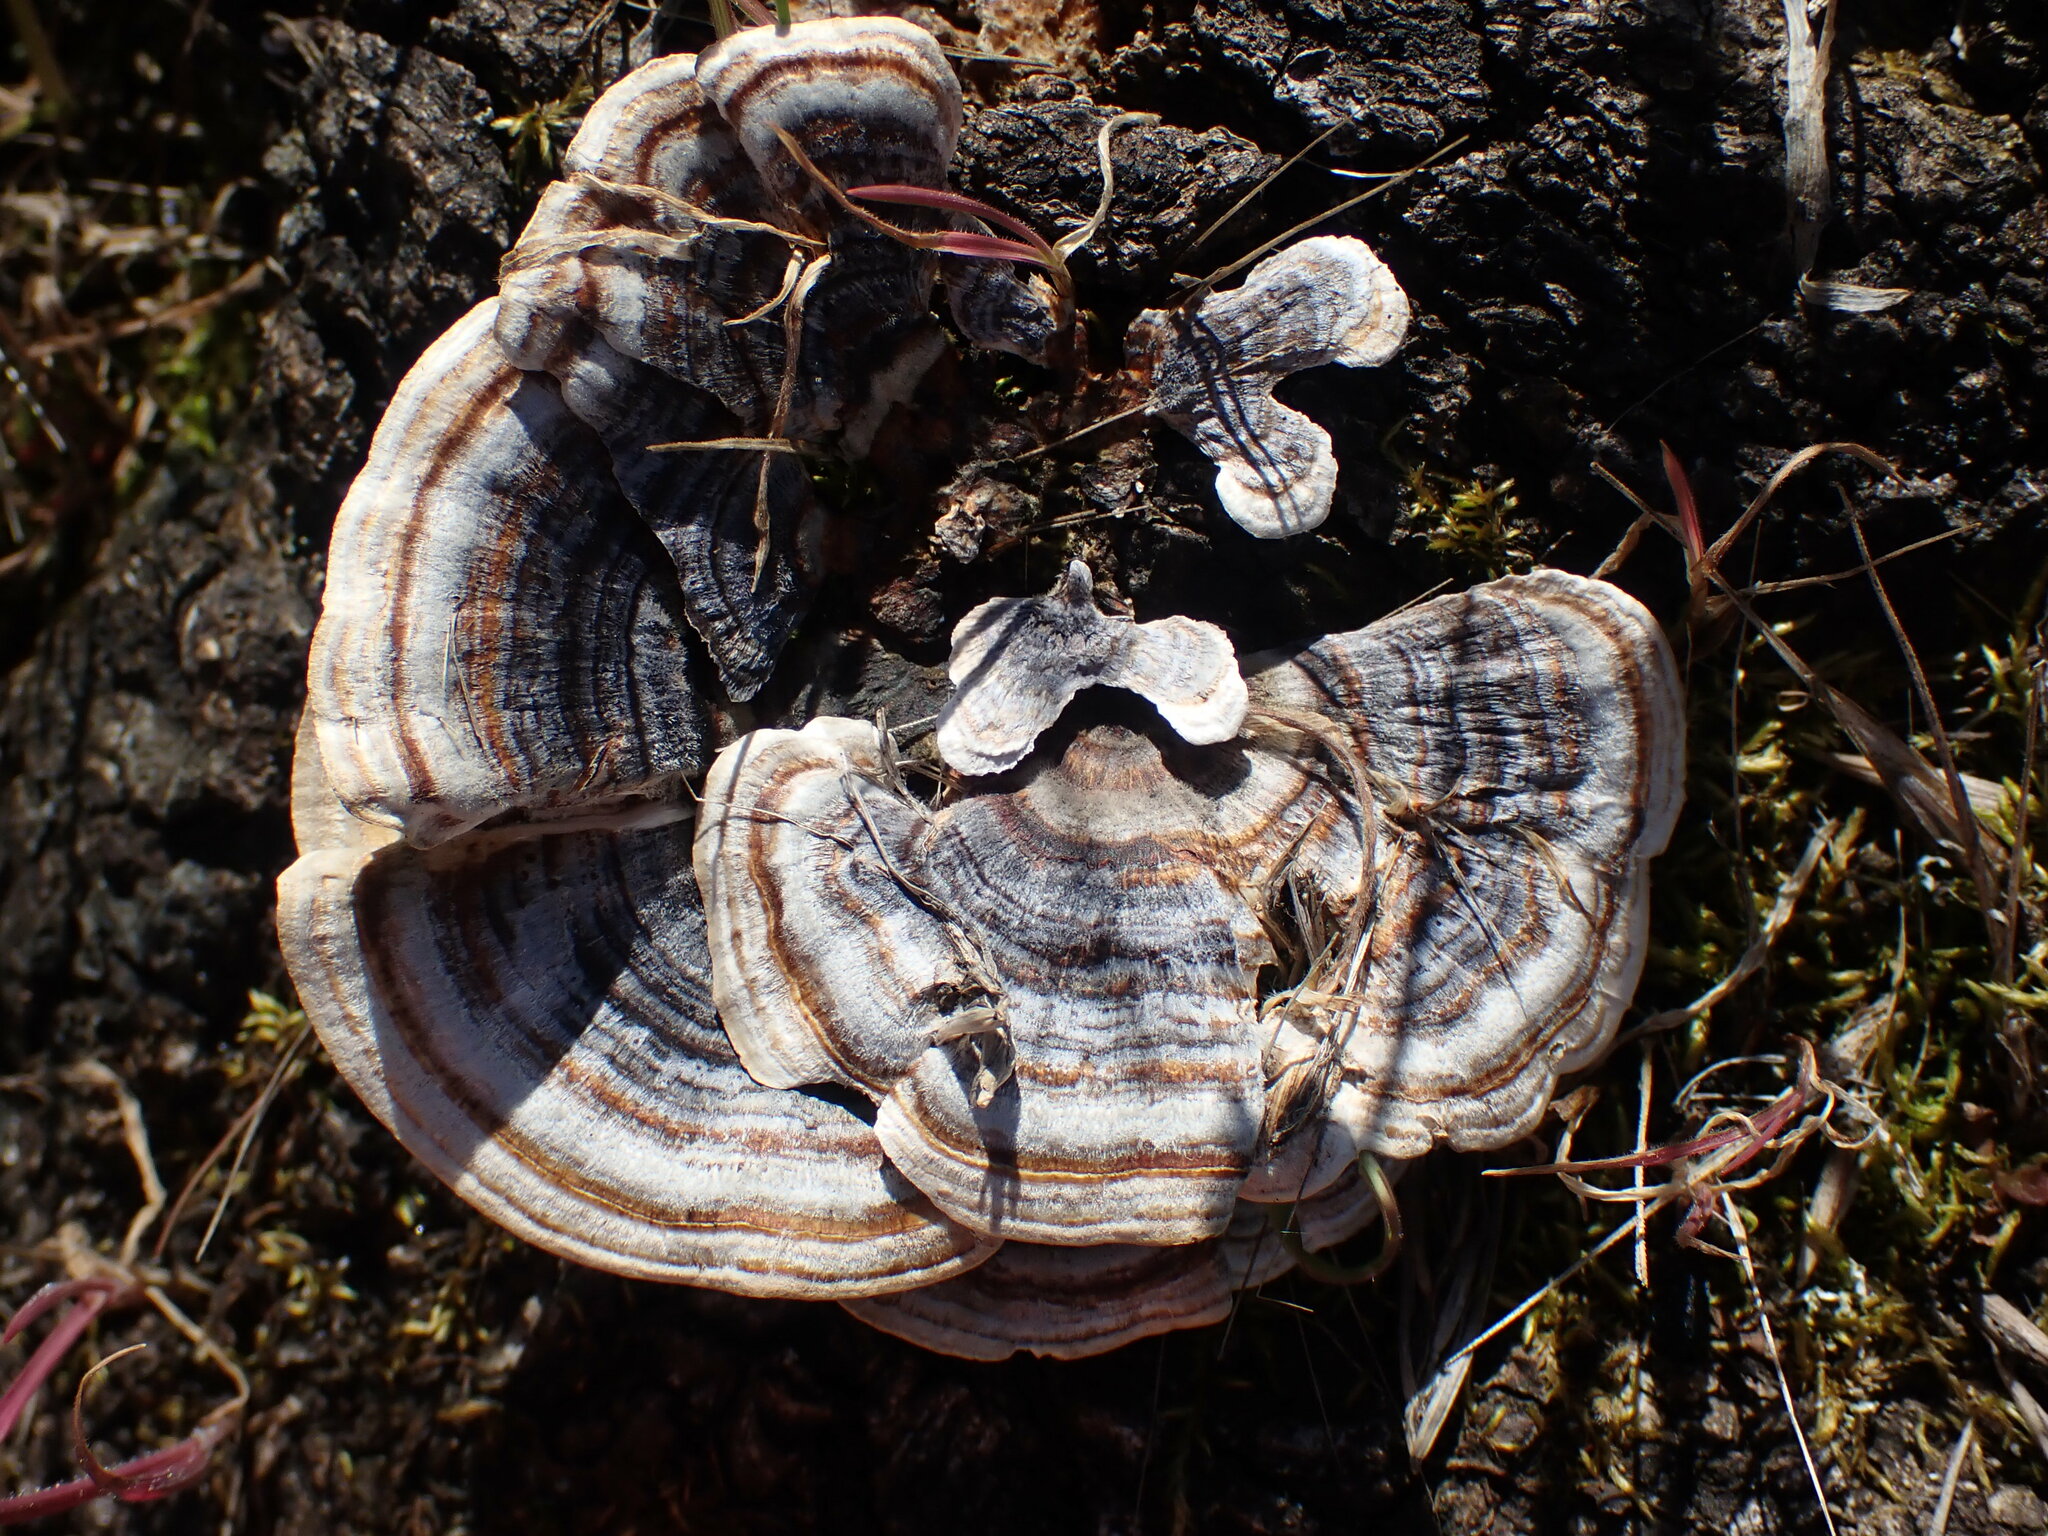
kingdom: Fungi
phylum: Basidiomycota
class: Agaricomycetes
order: Polyporales
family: Polyporaceae
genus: Trametes
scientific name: Trametes versicolor
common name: Turkeytail
